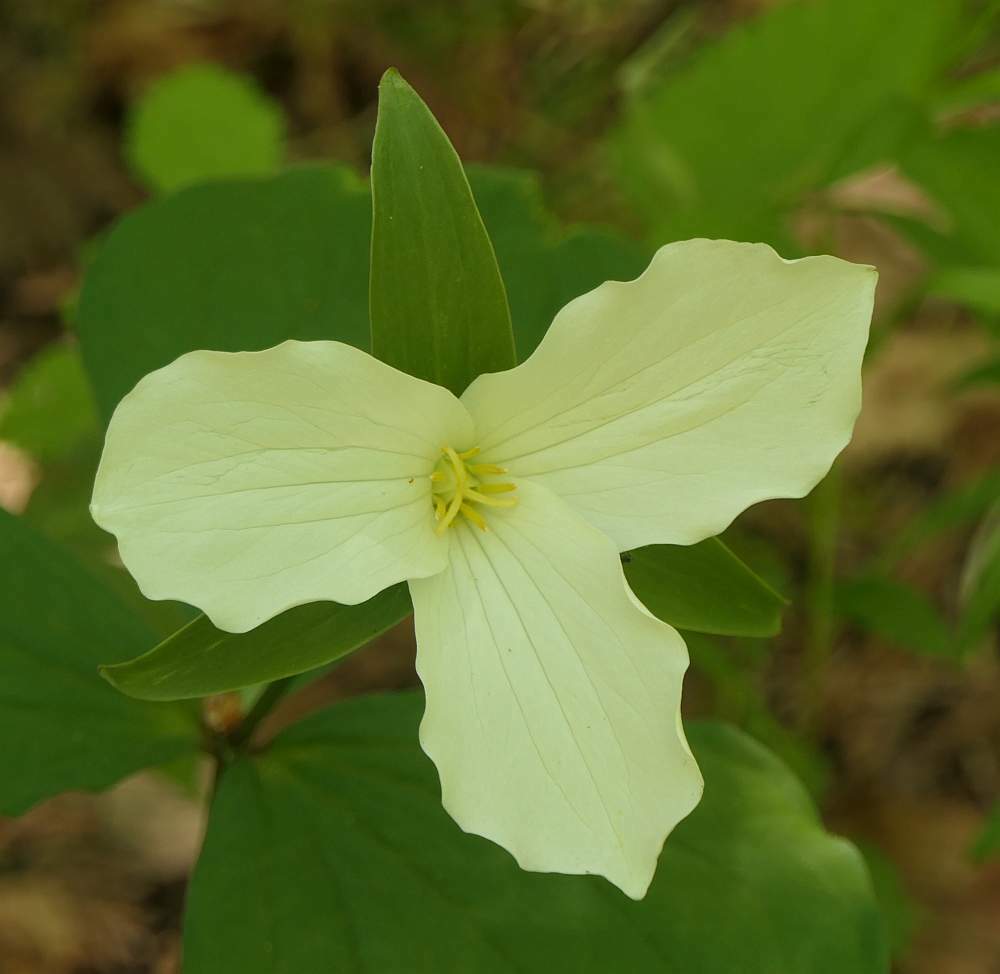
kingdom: Plantae
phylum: Tracheophyta
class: Liliopsida
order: Liliales
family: Melanthiaceae
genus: Trillium
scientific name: Trillium grandiflorum
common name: Great white trillium
